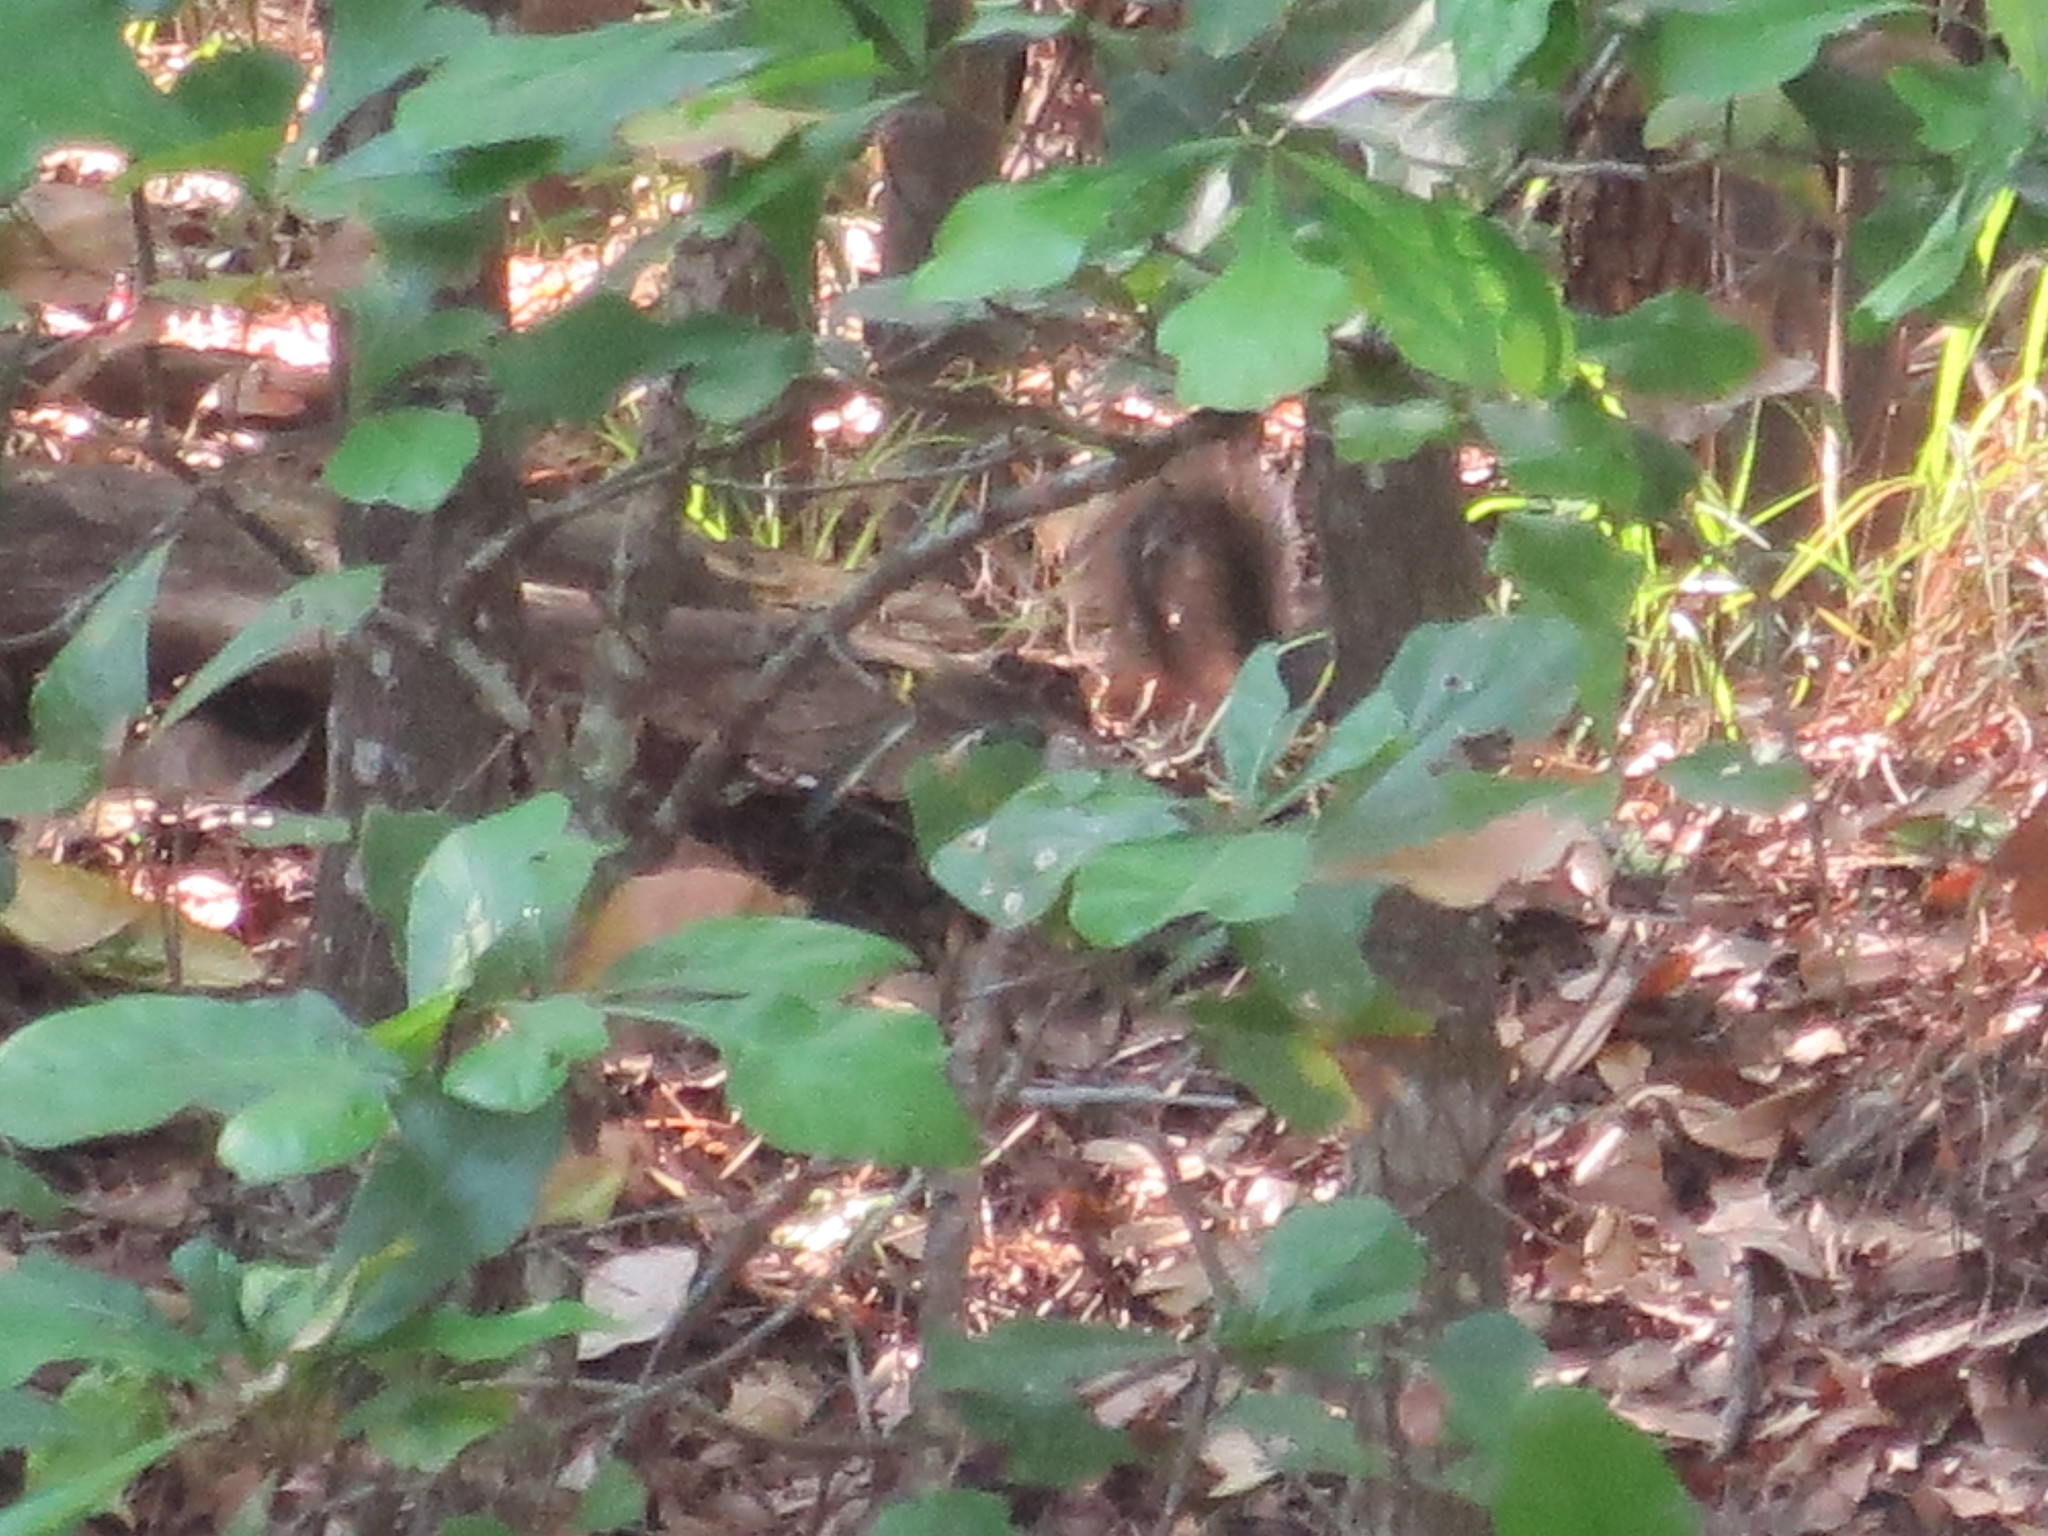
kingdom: Animalia
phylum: Chordata
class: Mammalia
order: Rodentia
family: Sciuridae
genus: Sciurus
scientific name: Sciurus carolinensis
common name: Eastern gray squirrel
